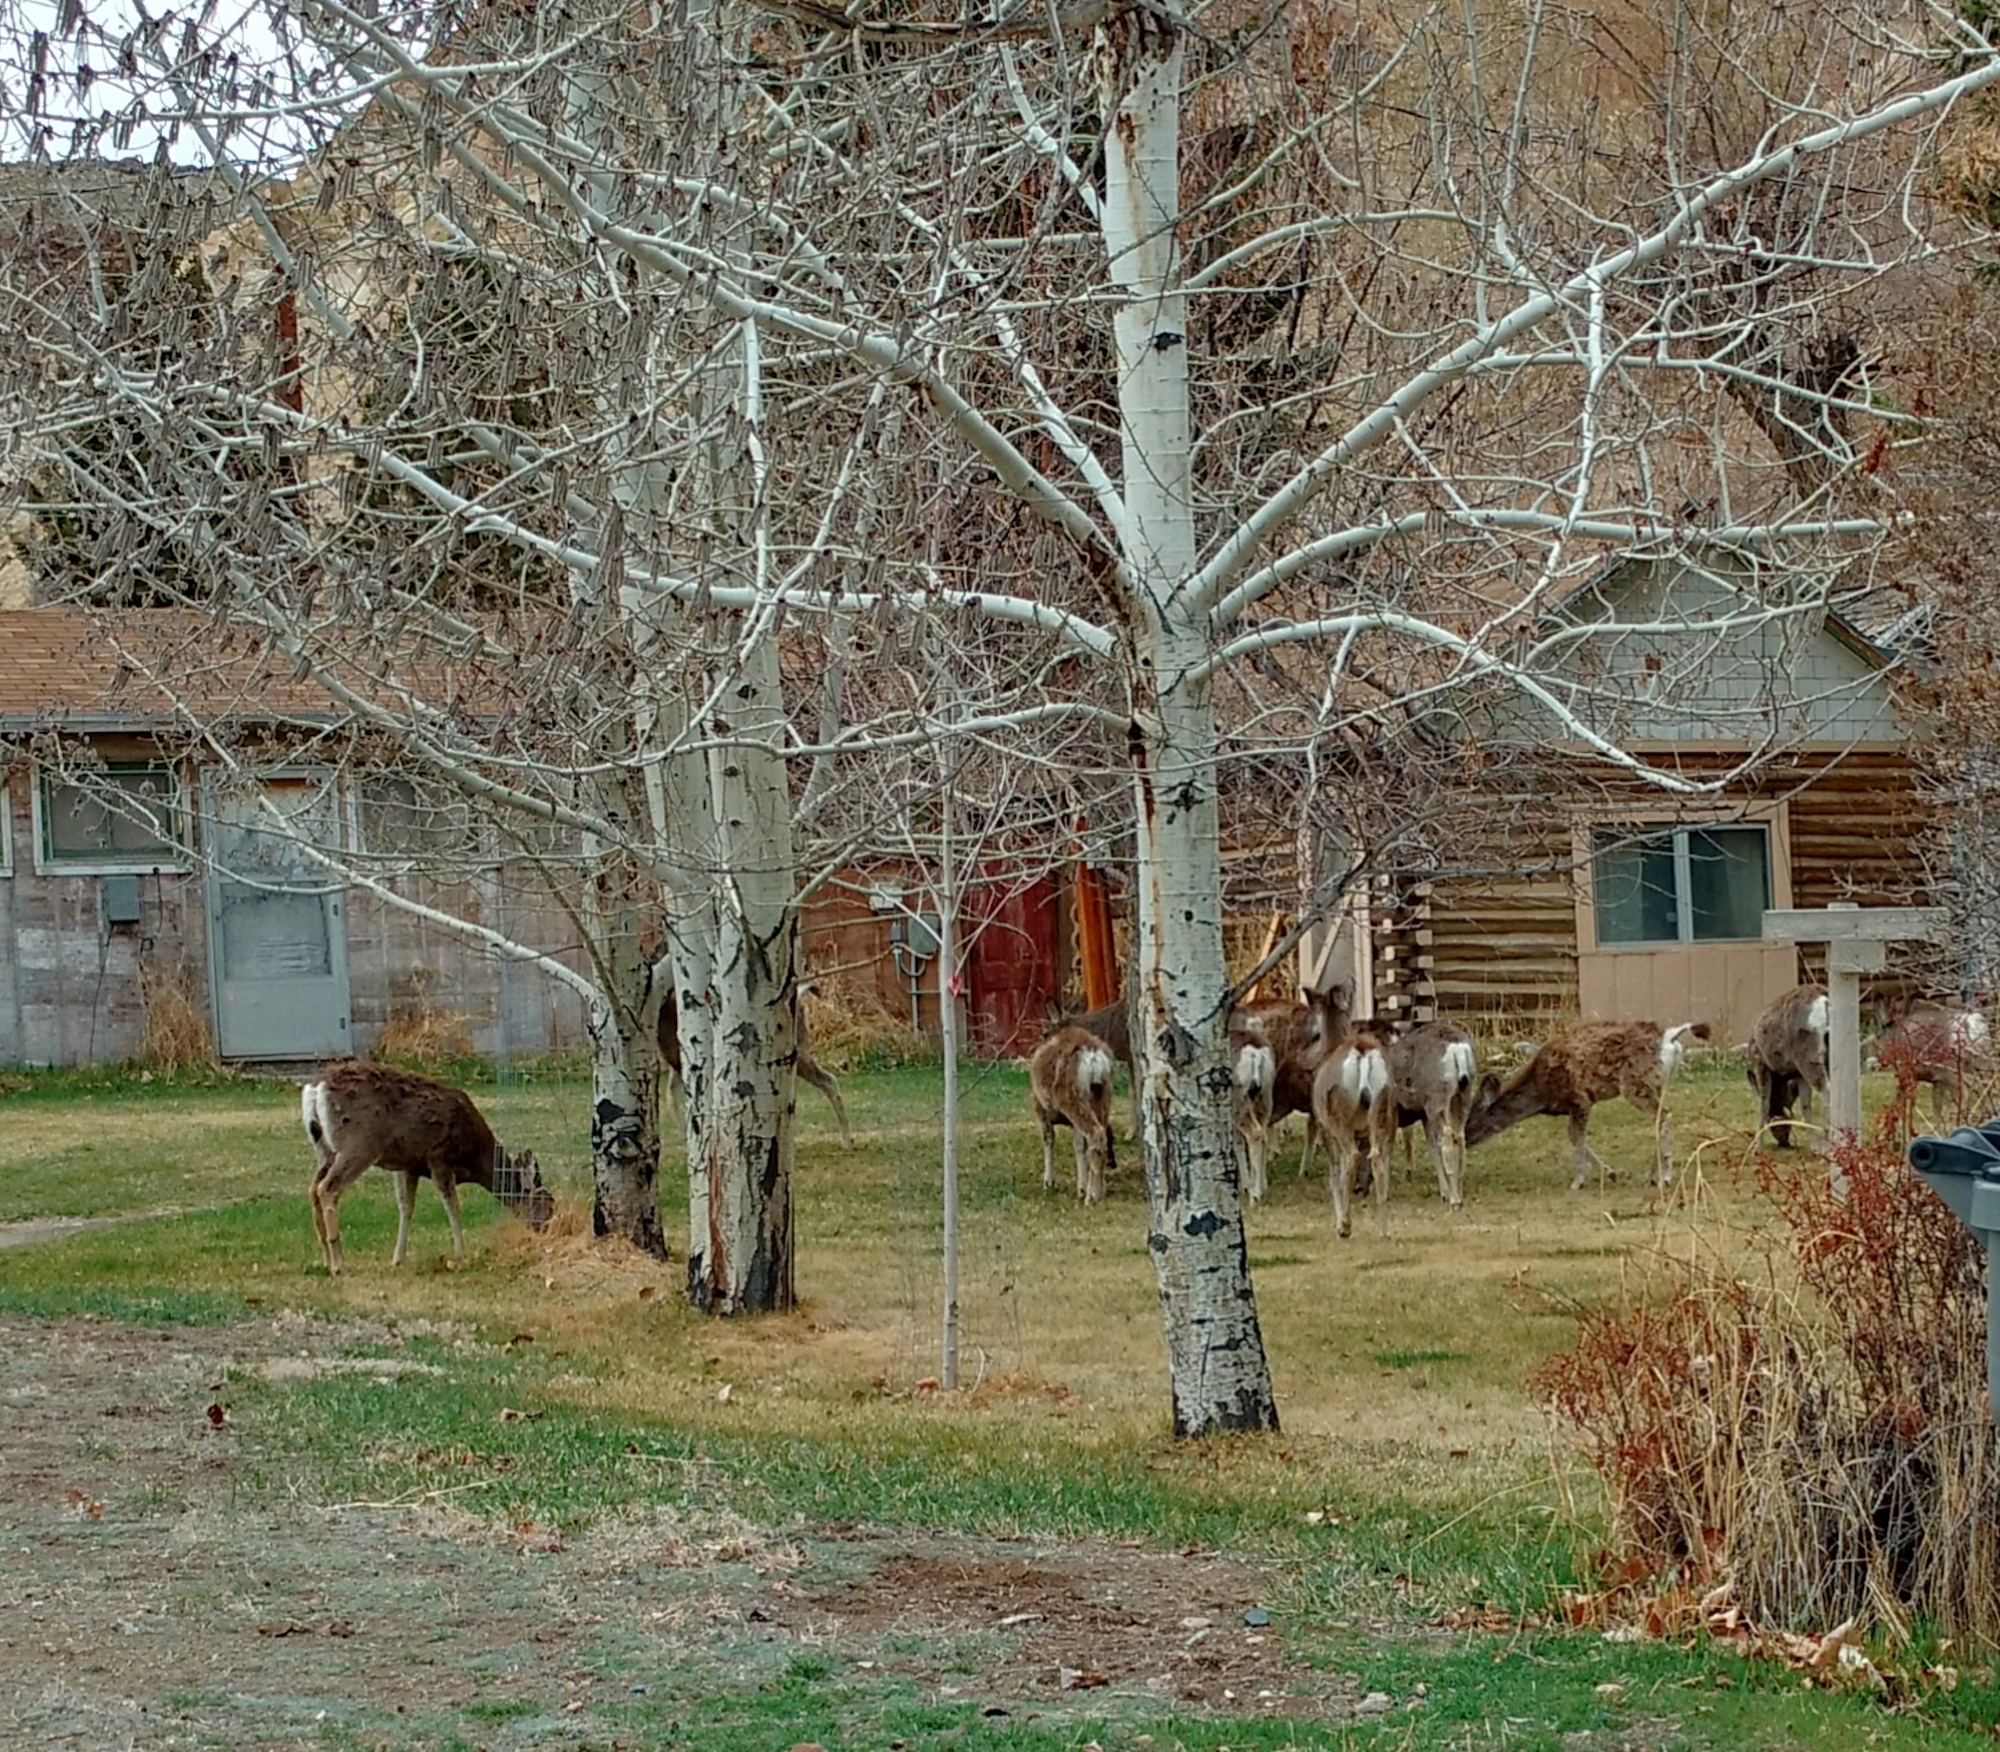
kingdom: Animalia
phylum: Chordata
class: Mammalia
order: Artiodactyla
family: Cervidae
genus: Odocoileus
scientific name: Odocoileus hemionus
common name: Mule deer
